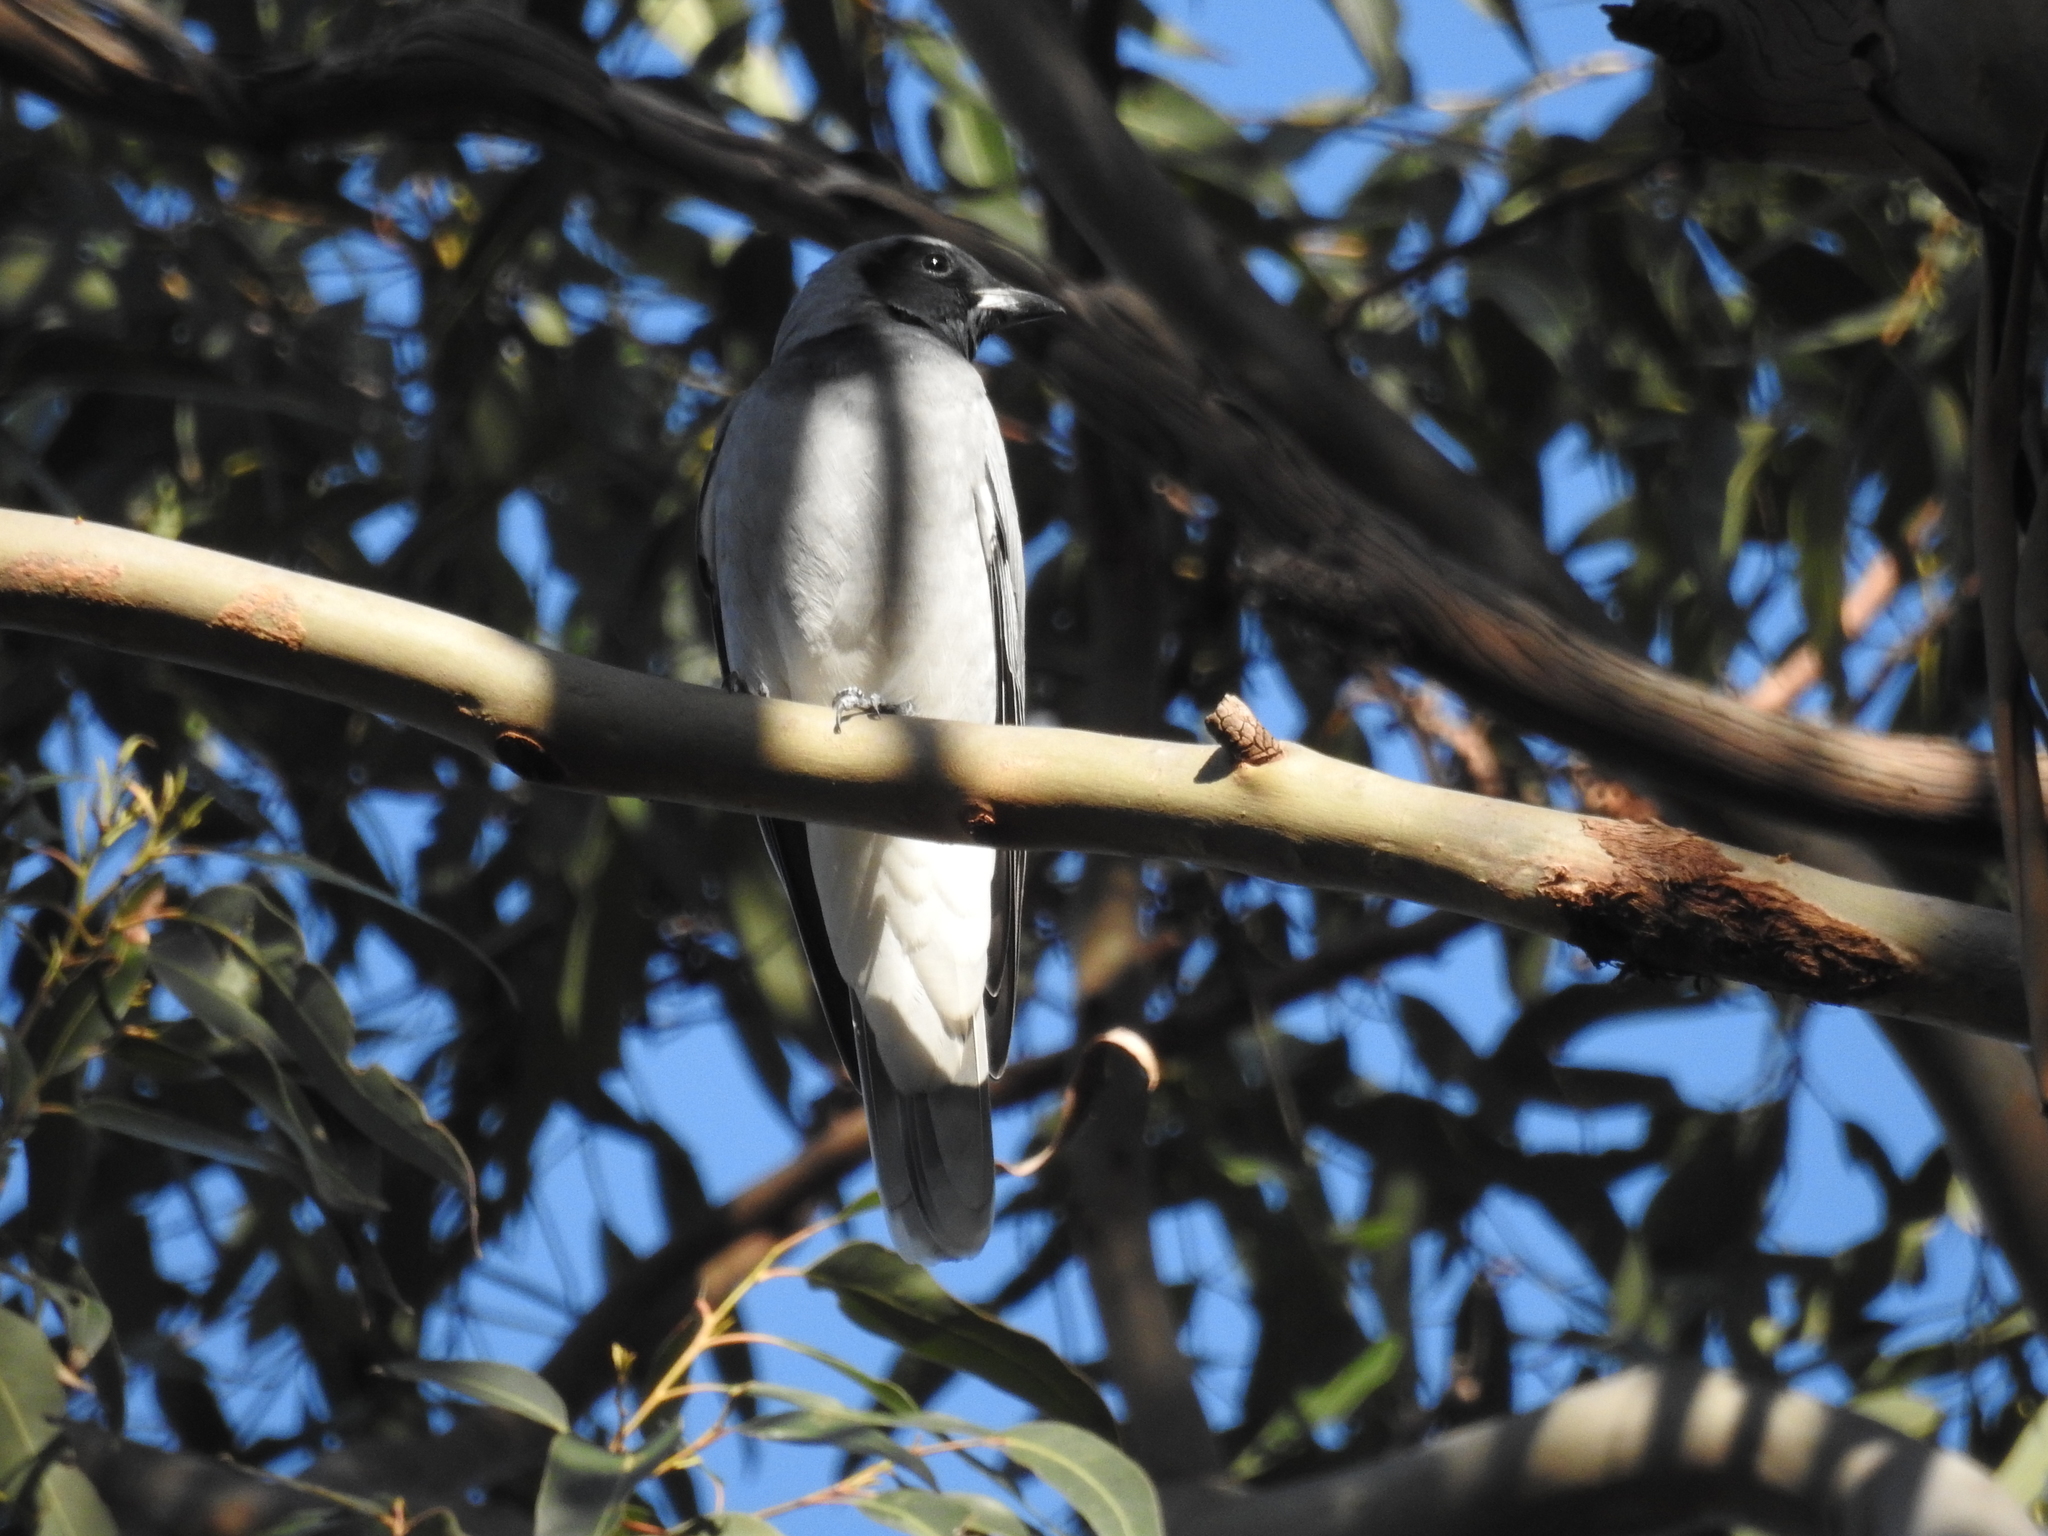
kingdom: Animalia
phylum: Chordata
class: Aves
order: Passeriformes
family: Campephagidae
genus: Coracina
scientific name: Coracina novaehollandiae
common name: Black-faced cuckooshrike
